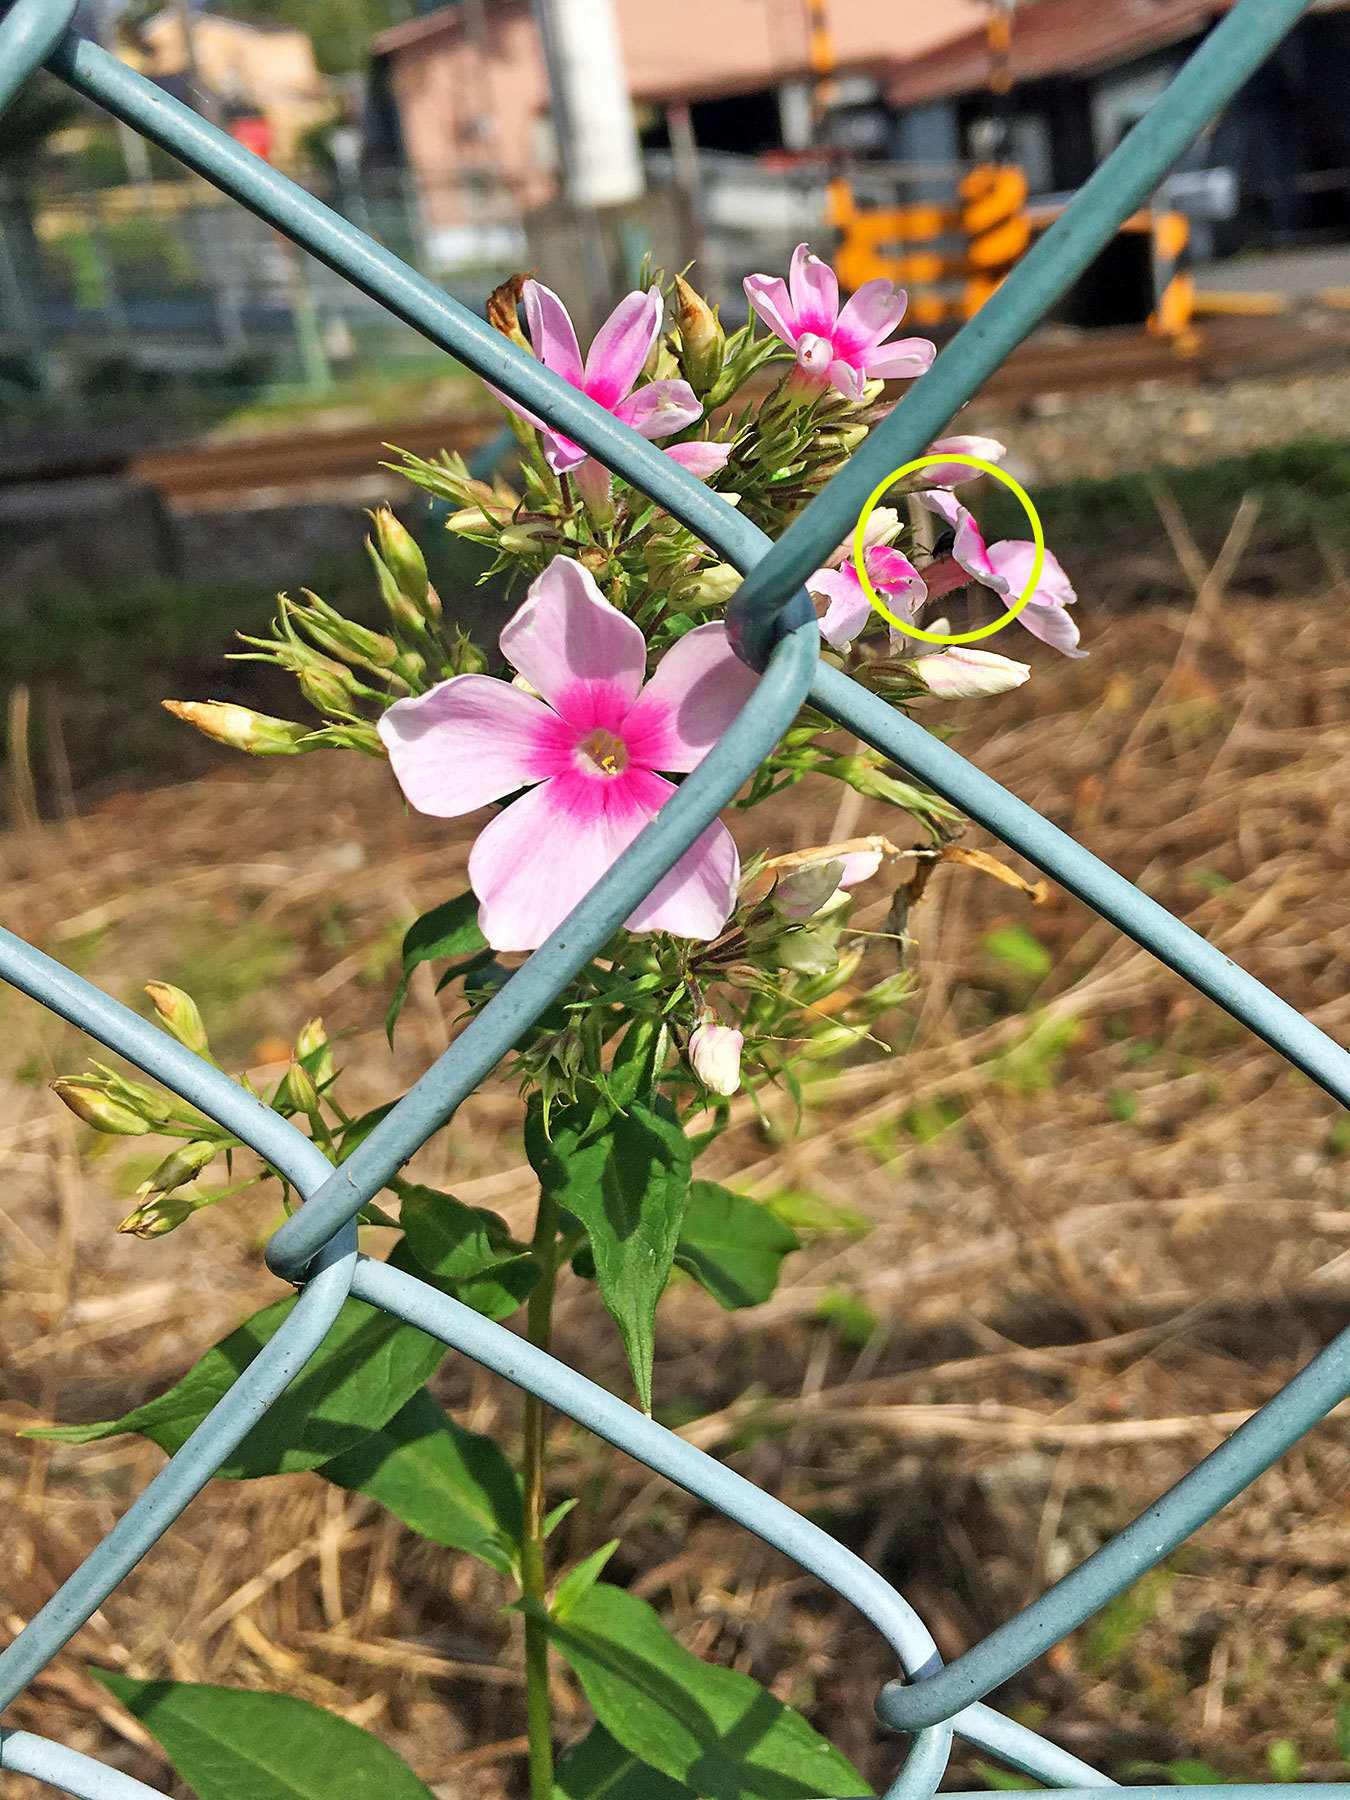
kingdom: Animalia
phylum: Arthropoda
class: Insecta
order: Coleoptera
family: Chrysomelidae
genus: Nonarthra
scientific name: Nonarthra
